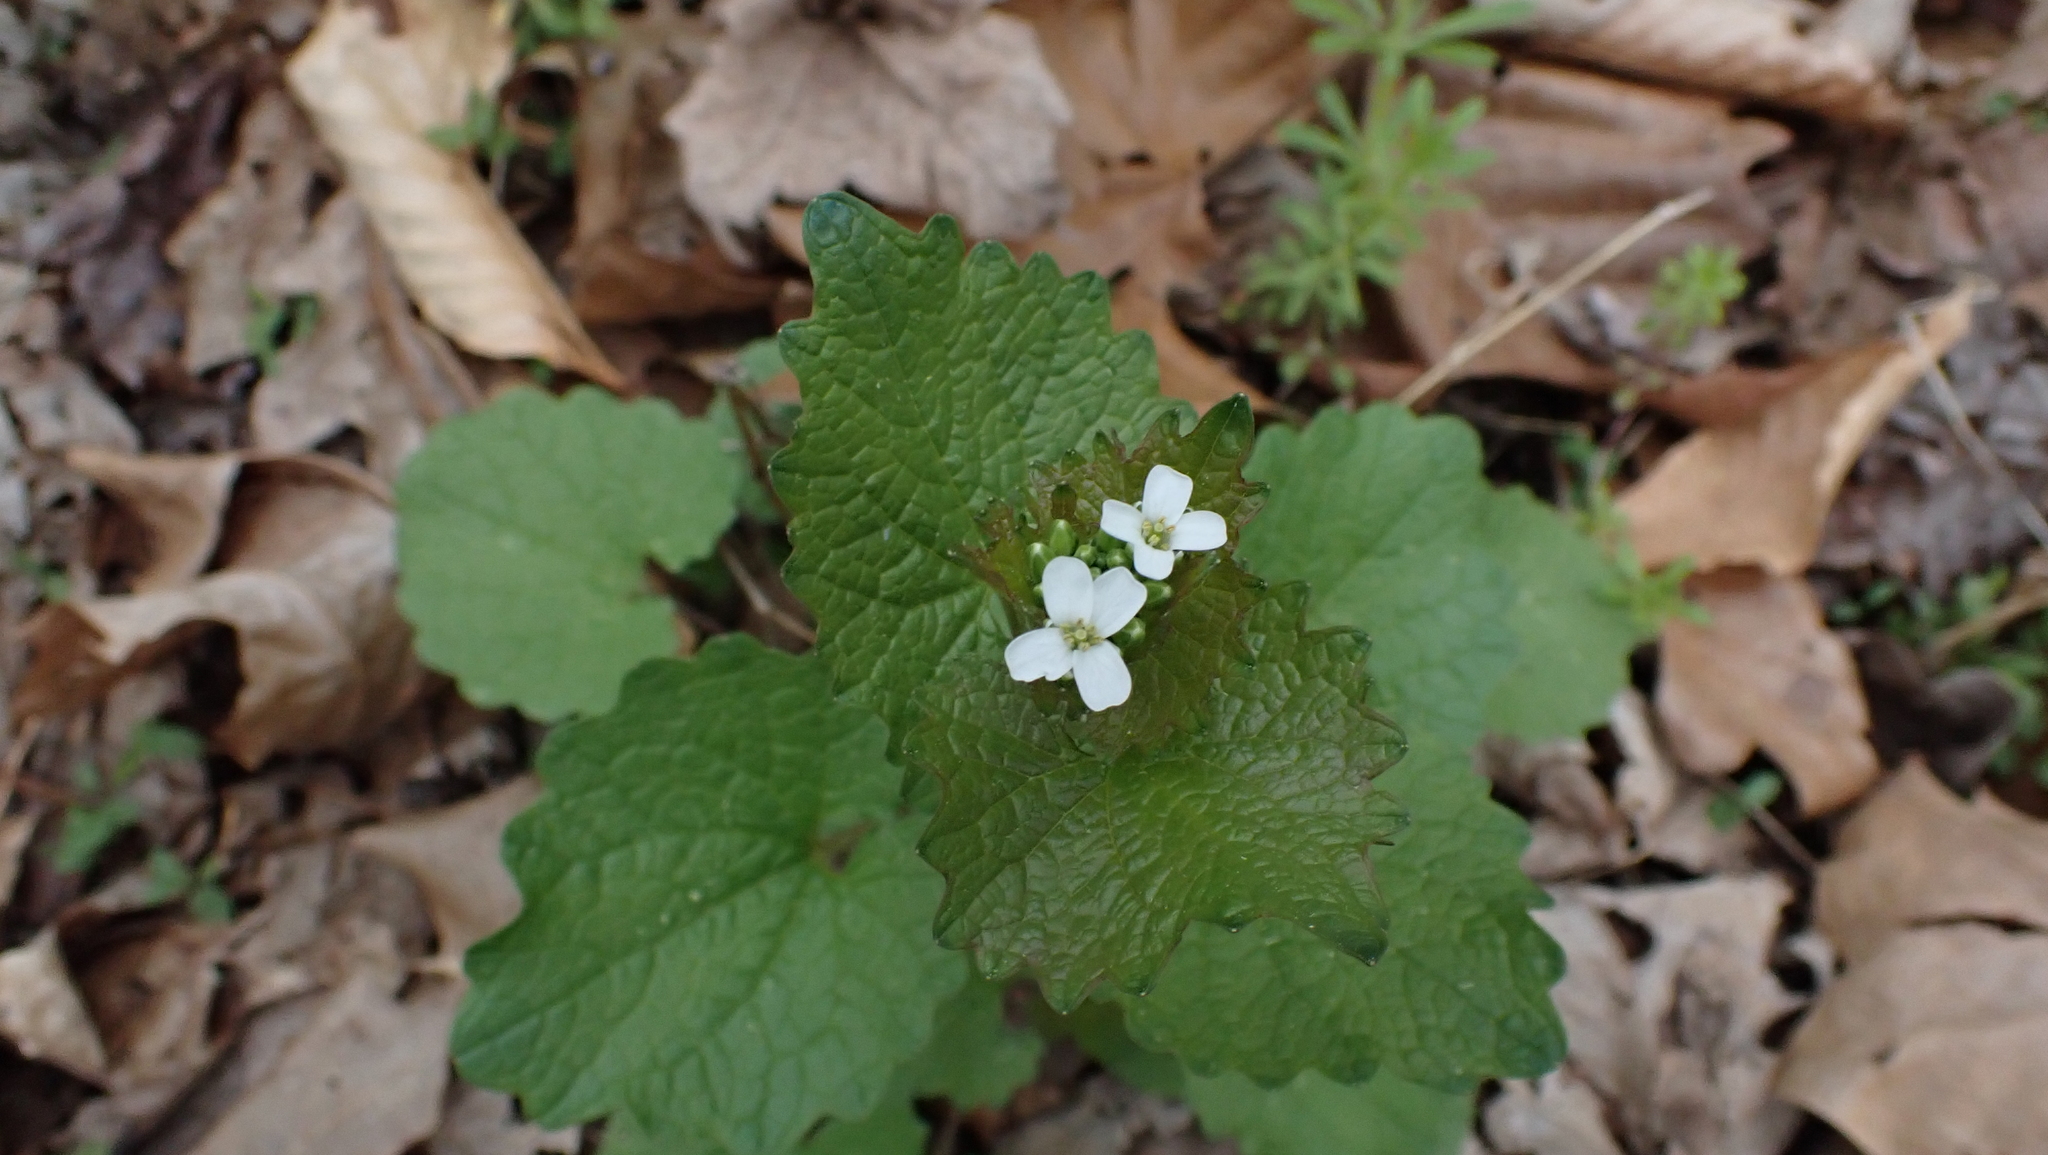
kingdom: Plantae
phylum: Tracheophyta
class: Magnoliopsida
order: Brassicales
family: Brassicaceae
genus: Alliaria
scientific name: Alliaria petiolata
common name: Garlic mustard
